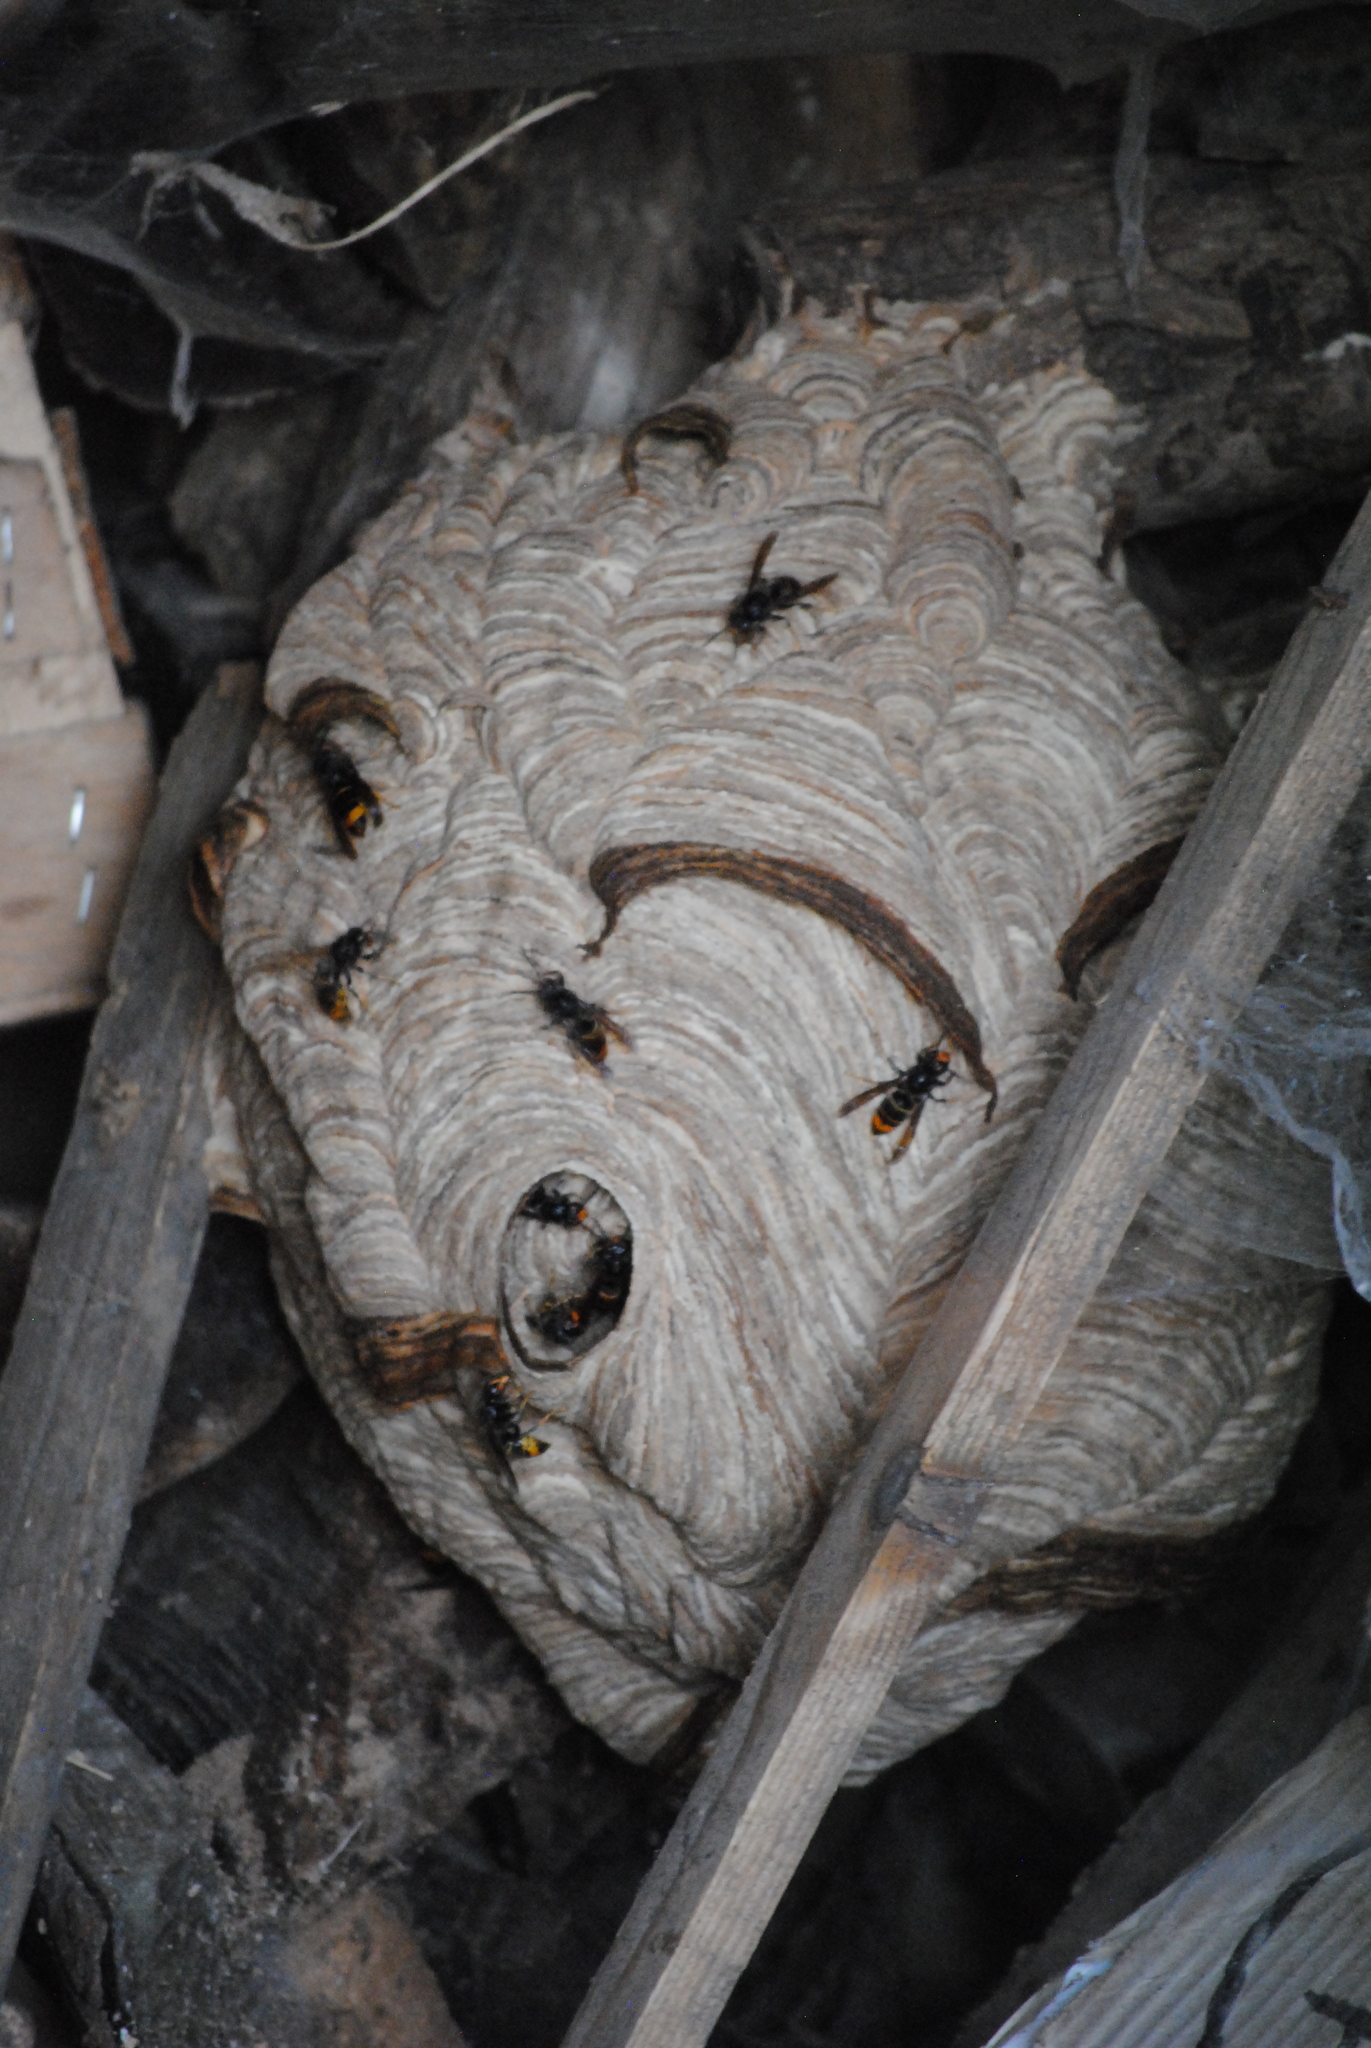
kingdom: Animalia
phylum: Arthropoda
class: Insecta
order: Hymenoptera
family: Vespidae
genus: Vespa
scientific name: Vespa velutina
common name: Asian hornet
